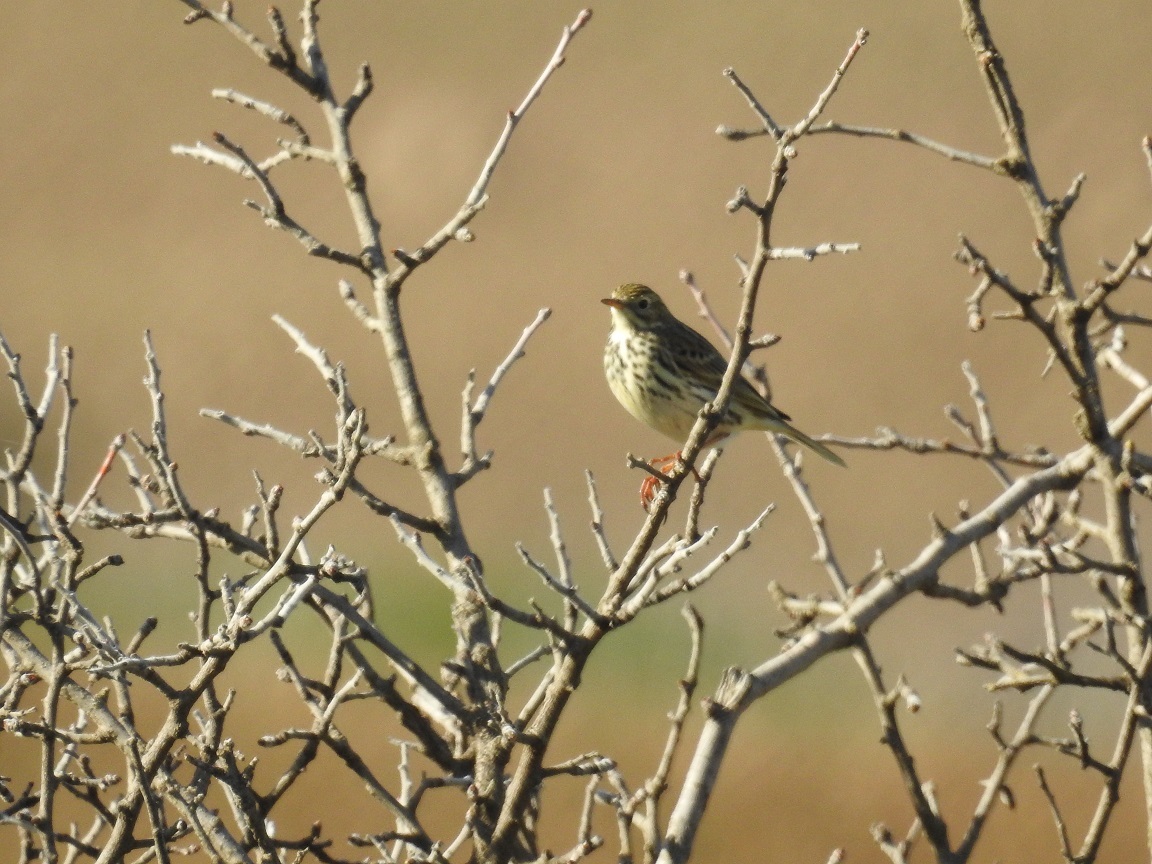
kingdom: Animalia
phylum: Chordata
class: Aves
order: Passeriformes
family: Motacillidae
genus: Anthus
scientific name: Anthus pratensis
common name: Meadow pipit
